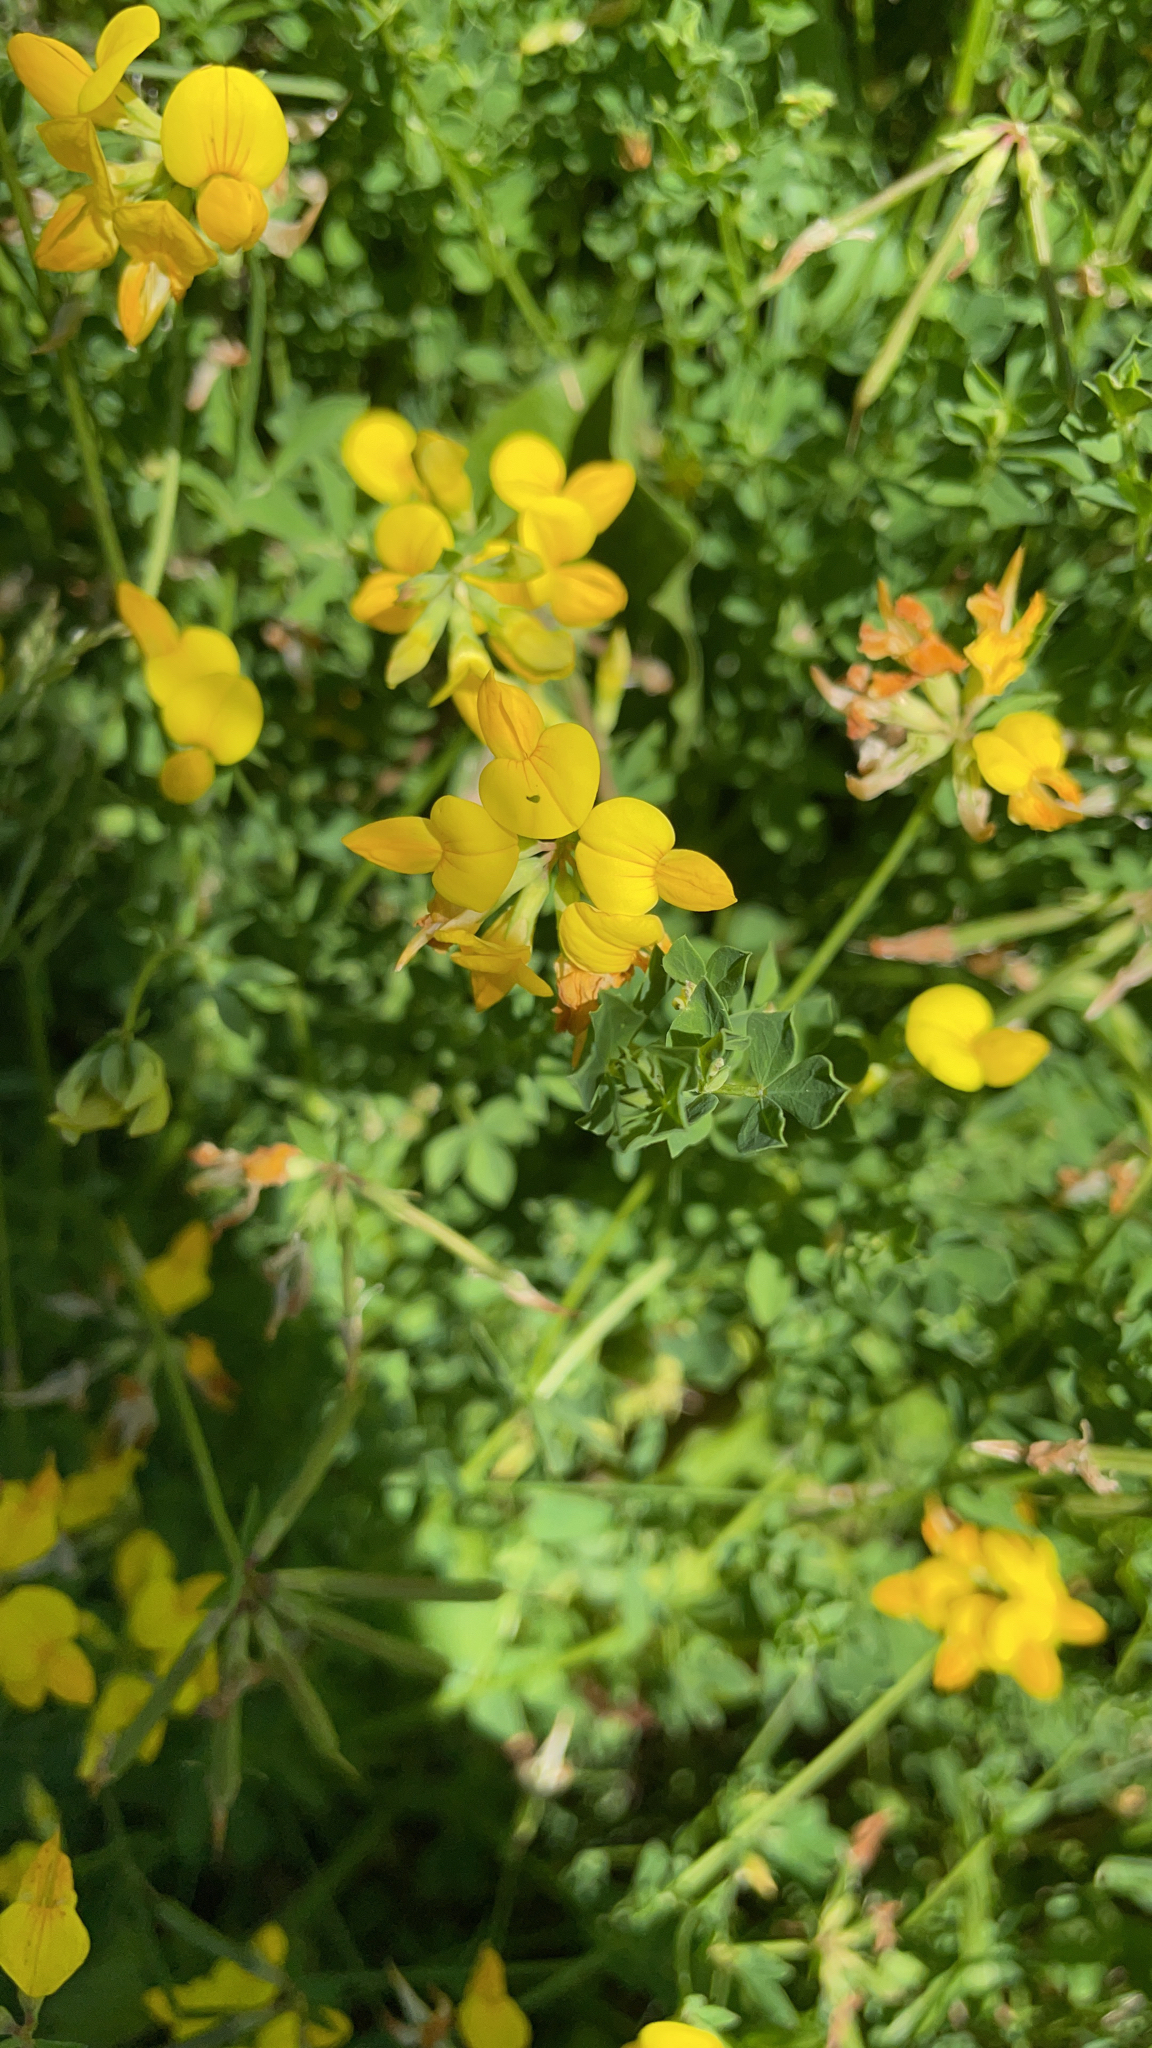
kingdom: Plantae
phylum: Tracheophyta
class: Magnoliopsida
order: Fabales
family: Fabaceae
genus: Lotus
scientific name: Lotus corniculatus
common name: Common bird's-foot-trefoil
